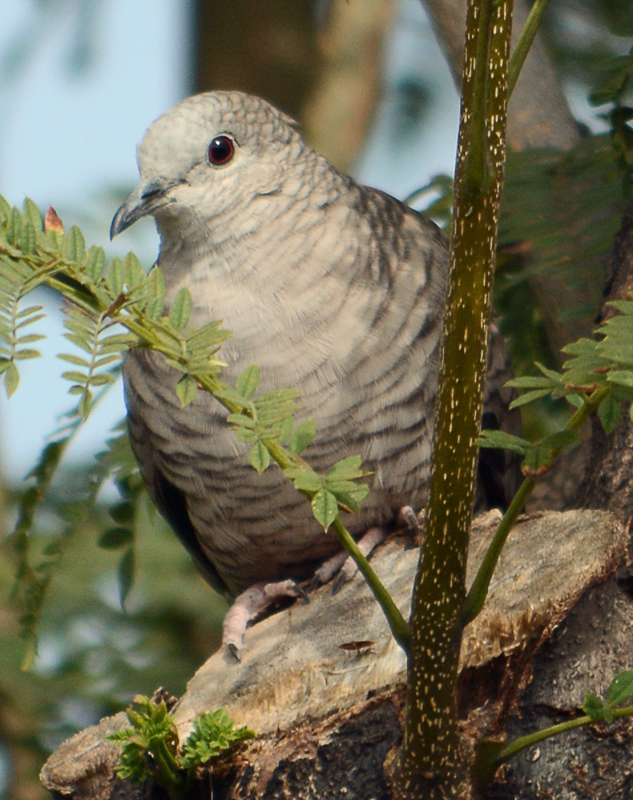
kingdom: Animalia
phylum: Chordata
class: Aves
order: Columbiformes
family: Columbidae
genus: Columbina
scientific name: Columbina inca
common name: Inca dove
